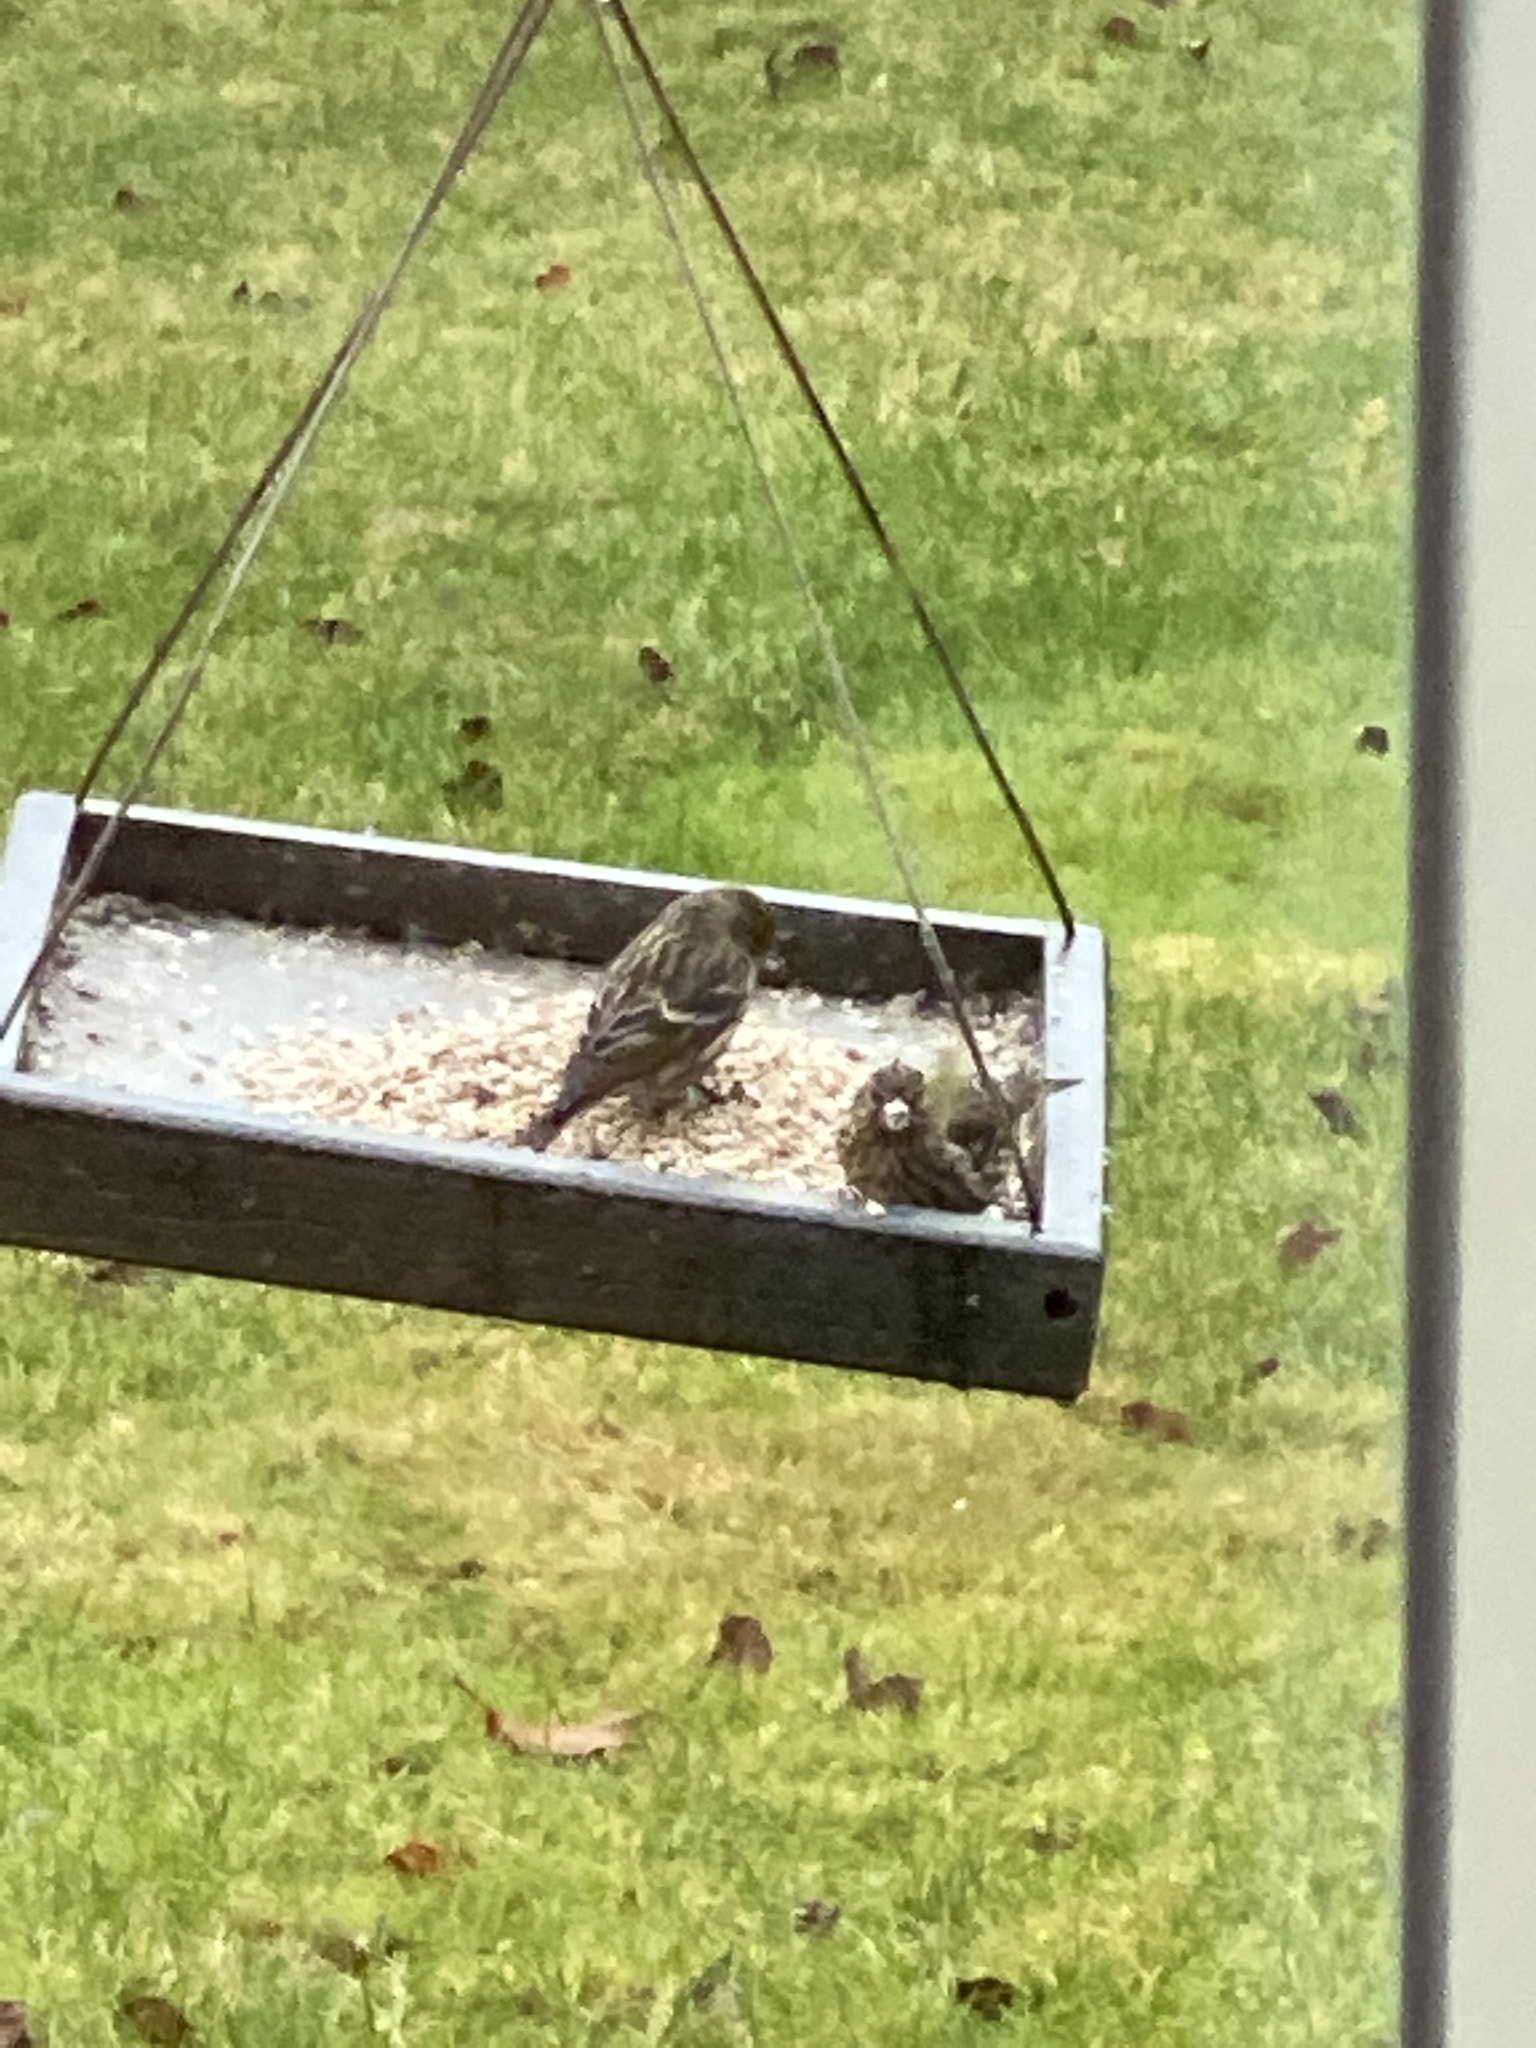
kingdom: Animalia
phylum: Chordata
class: Aves
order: Passeriformes
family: Fringillidae
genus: Spinus
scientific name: Spinus pinus
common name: Pine siskin
